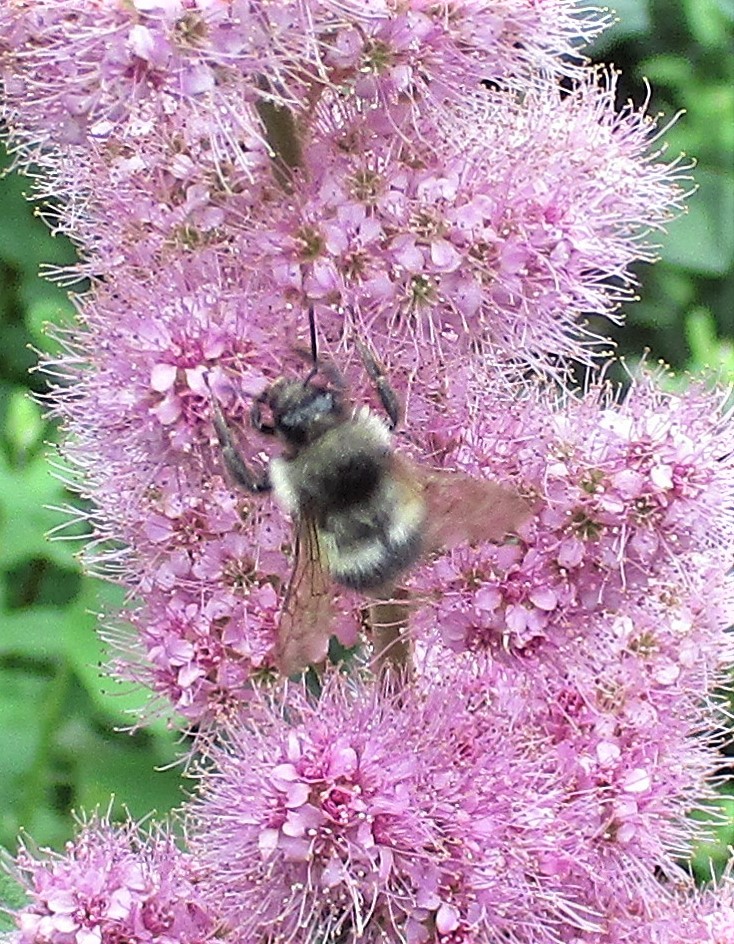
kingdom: Animalia
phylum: Arthropoda
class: Insecta
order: Hymenoptera
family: Apidae
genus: Bombus
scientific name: Bombus sitkensis
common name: Sitka bumble bee
